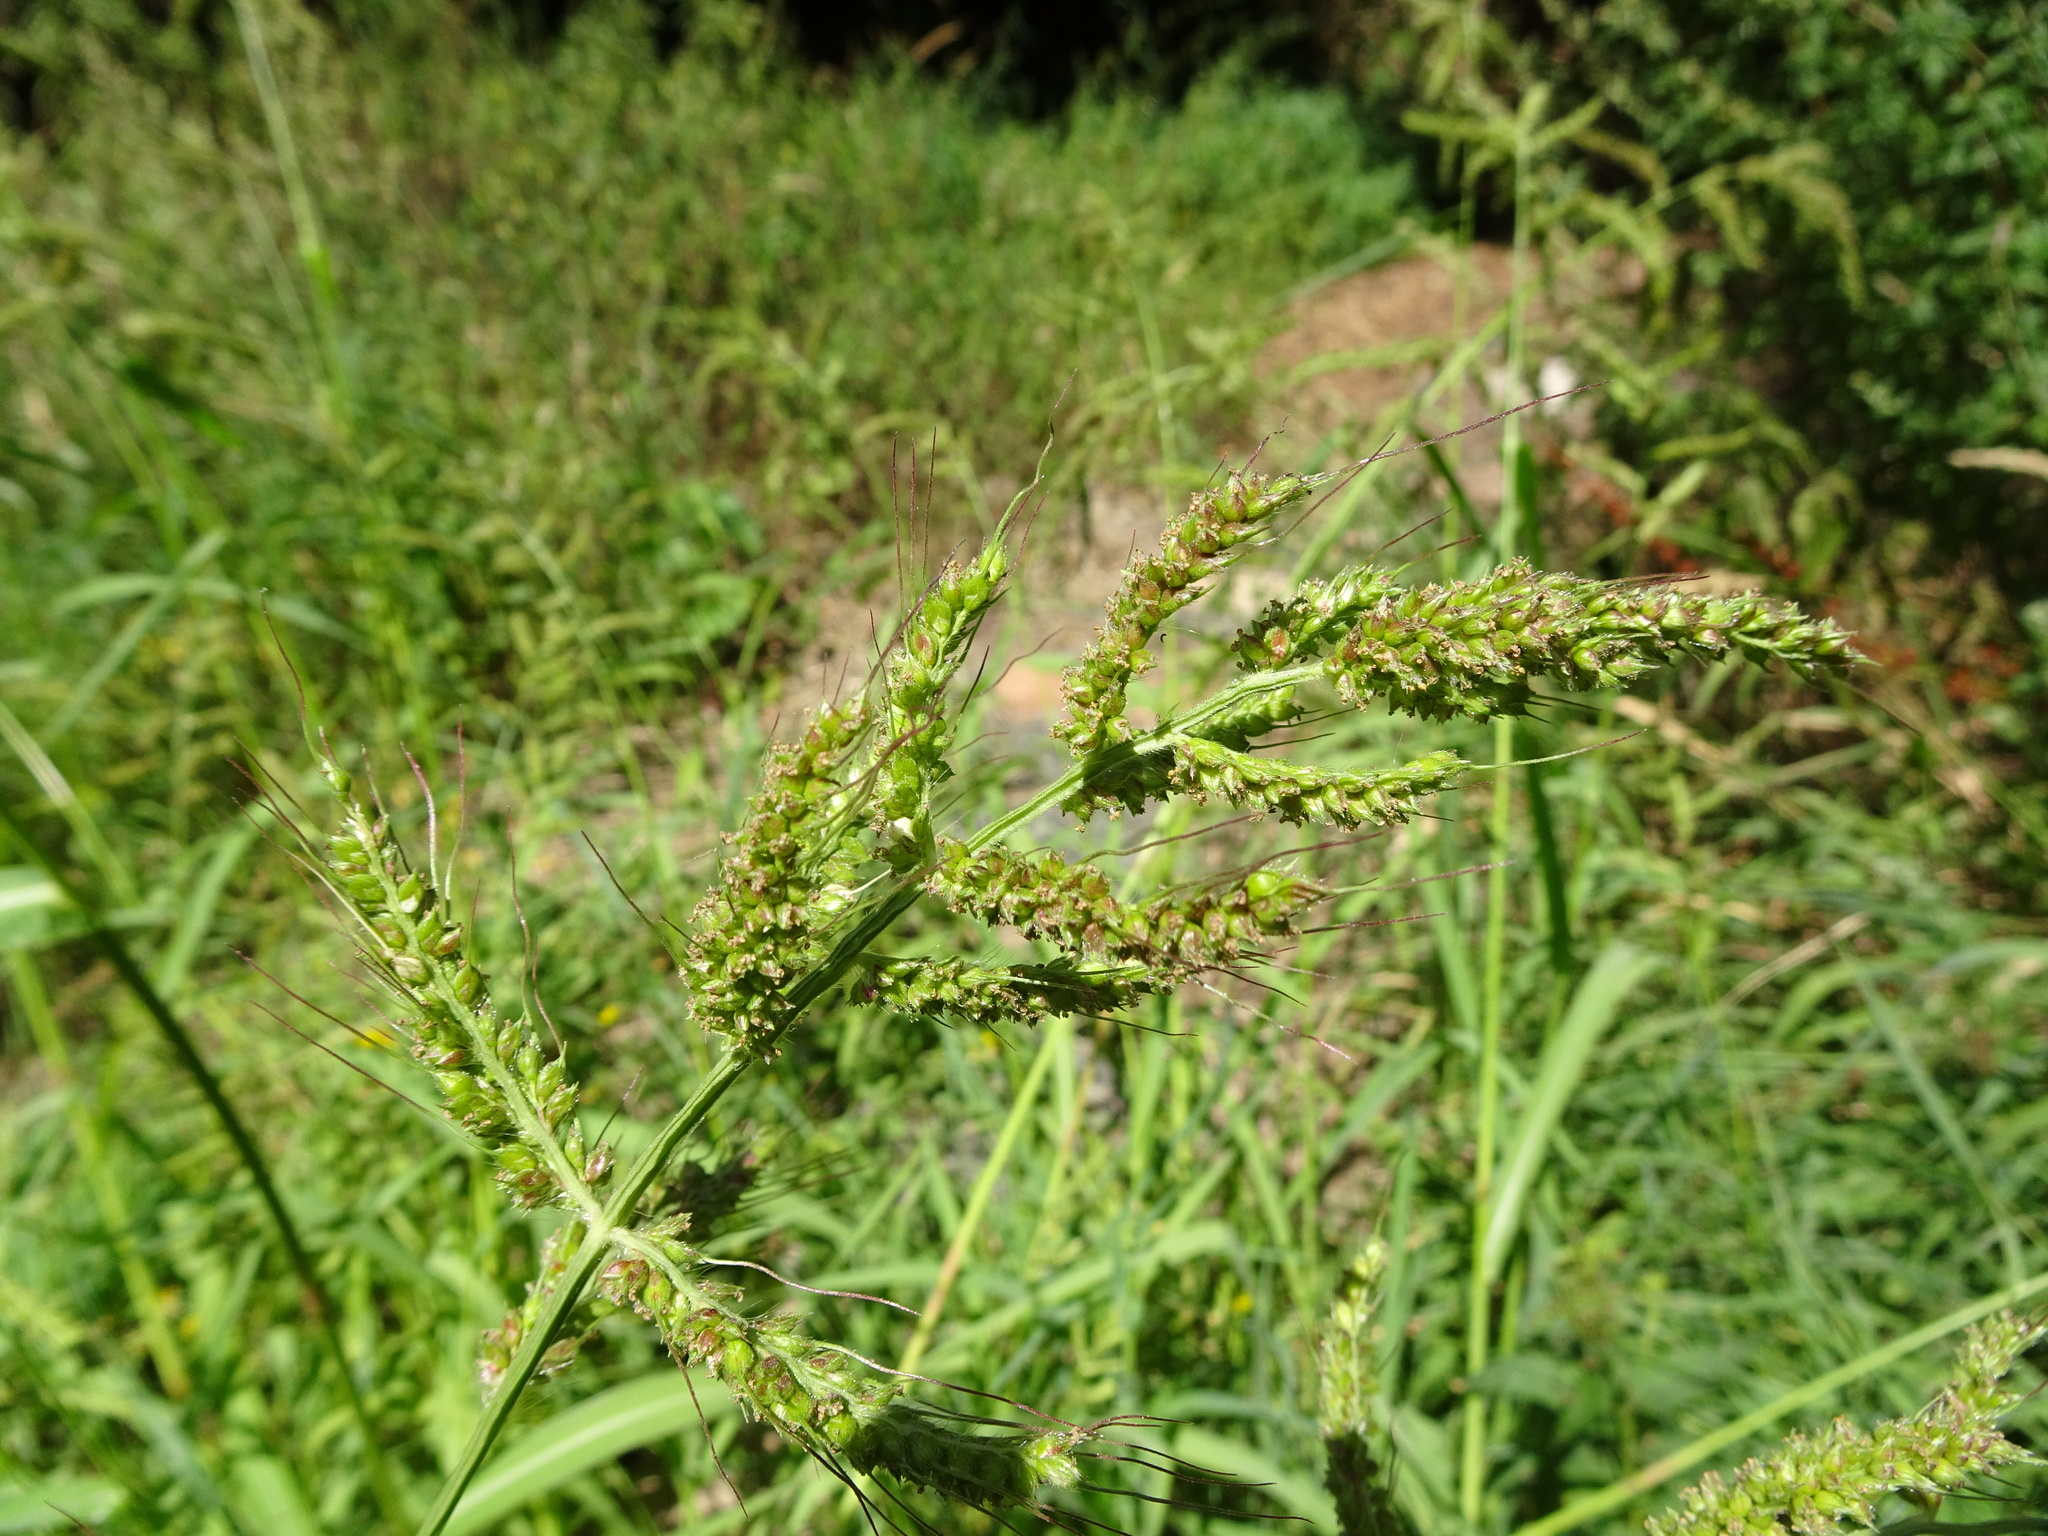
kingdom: Plantae
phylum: Tracheophyta
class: Liliopsida
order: Poales
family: Poaceae
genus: Echinochloa
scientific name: Echinochloa crus-galli
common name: Cockspur
